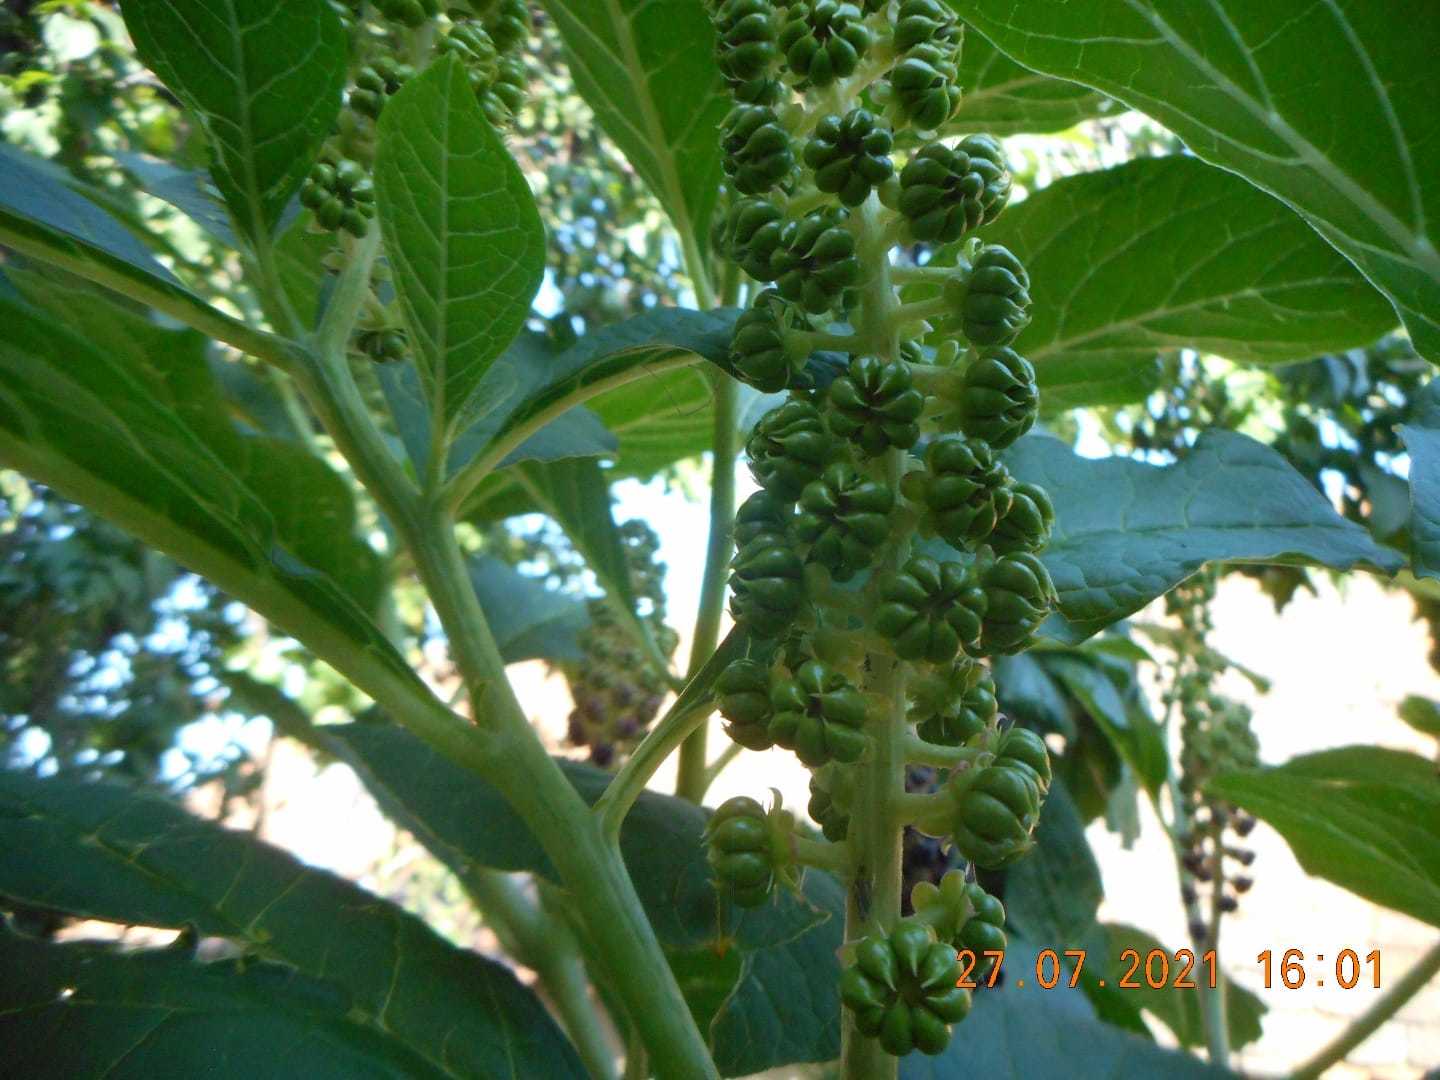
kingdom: Plantae
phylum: Tracheophyta
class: Magnoliopsida
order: Caryophyllales
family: Phytolaccaceae
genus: Phytolacca
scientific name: Phytolacca acinosa
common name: Indian pokeweed
